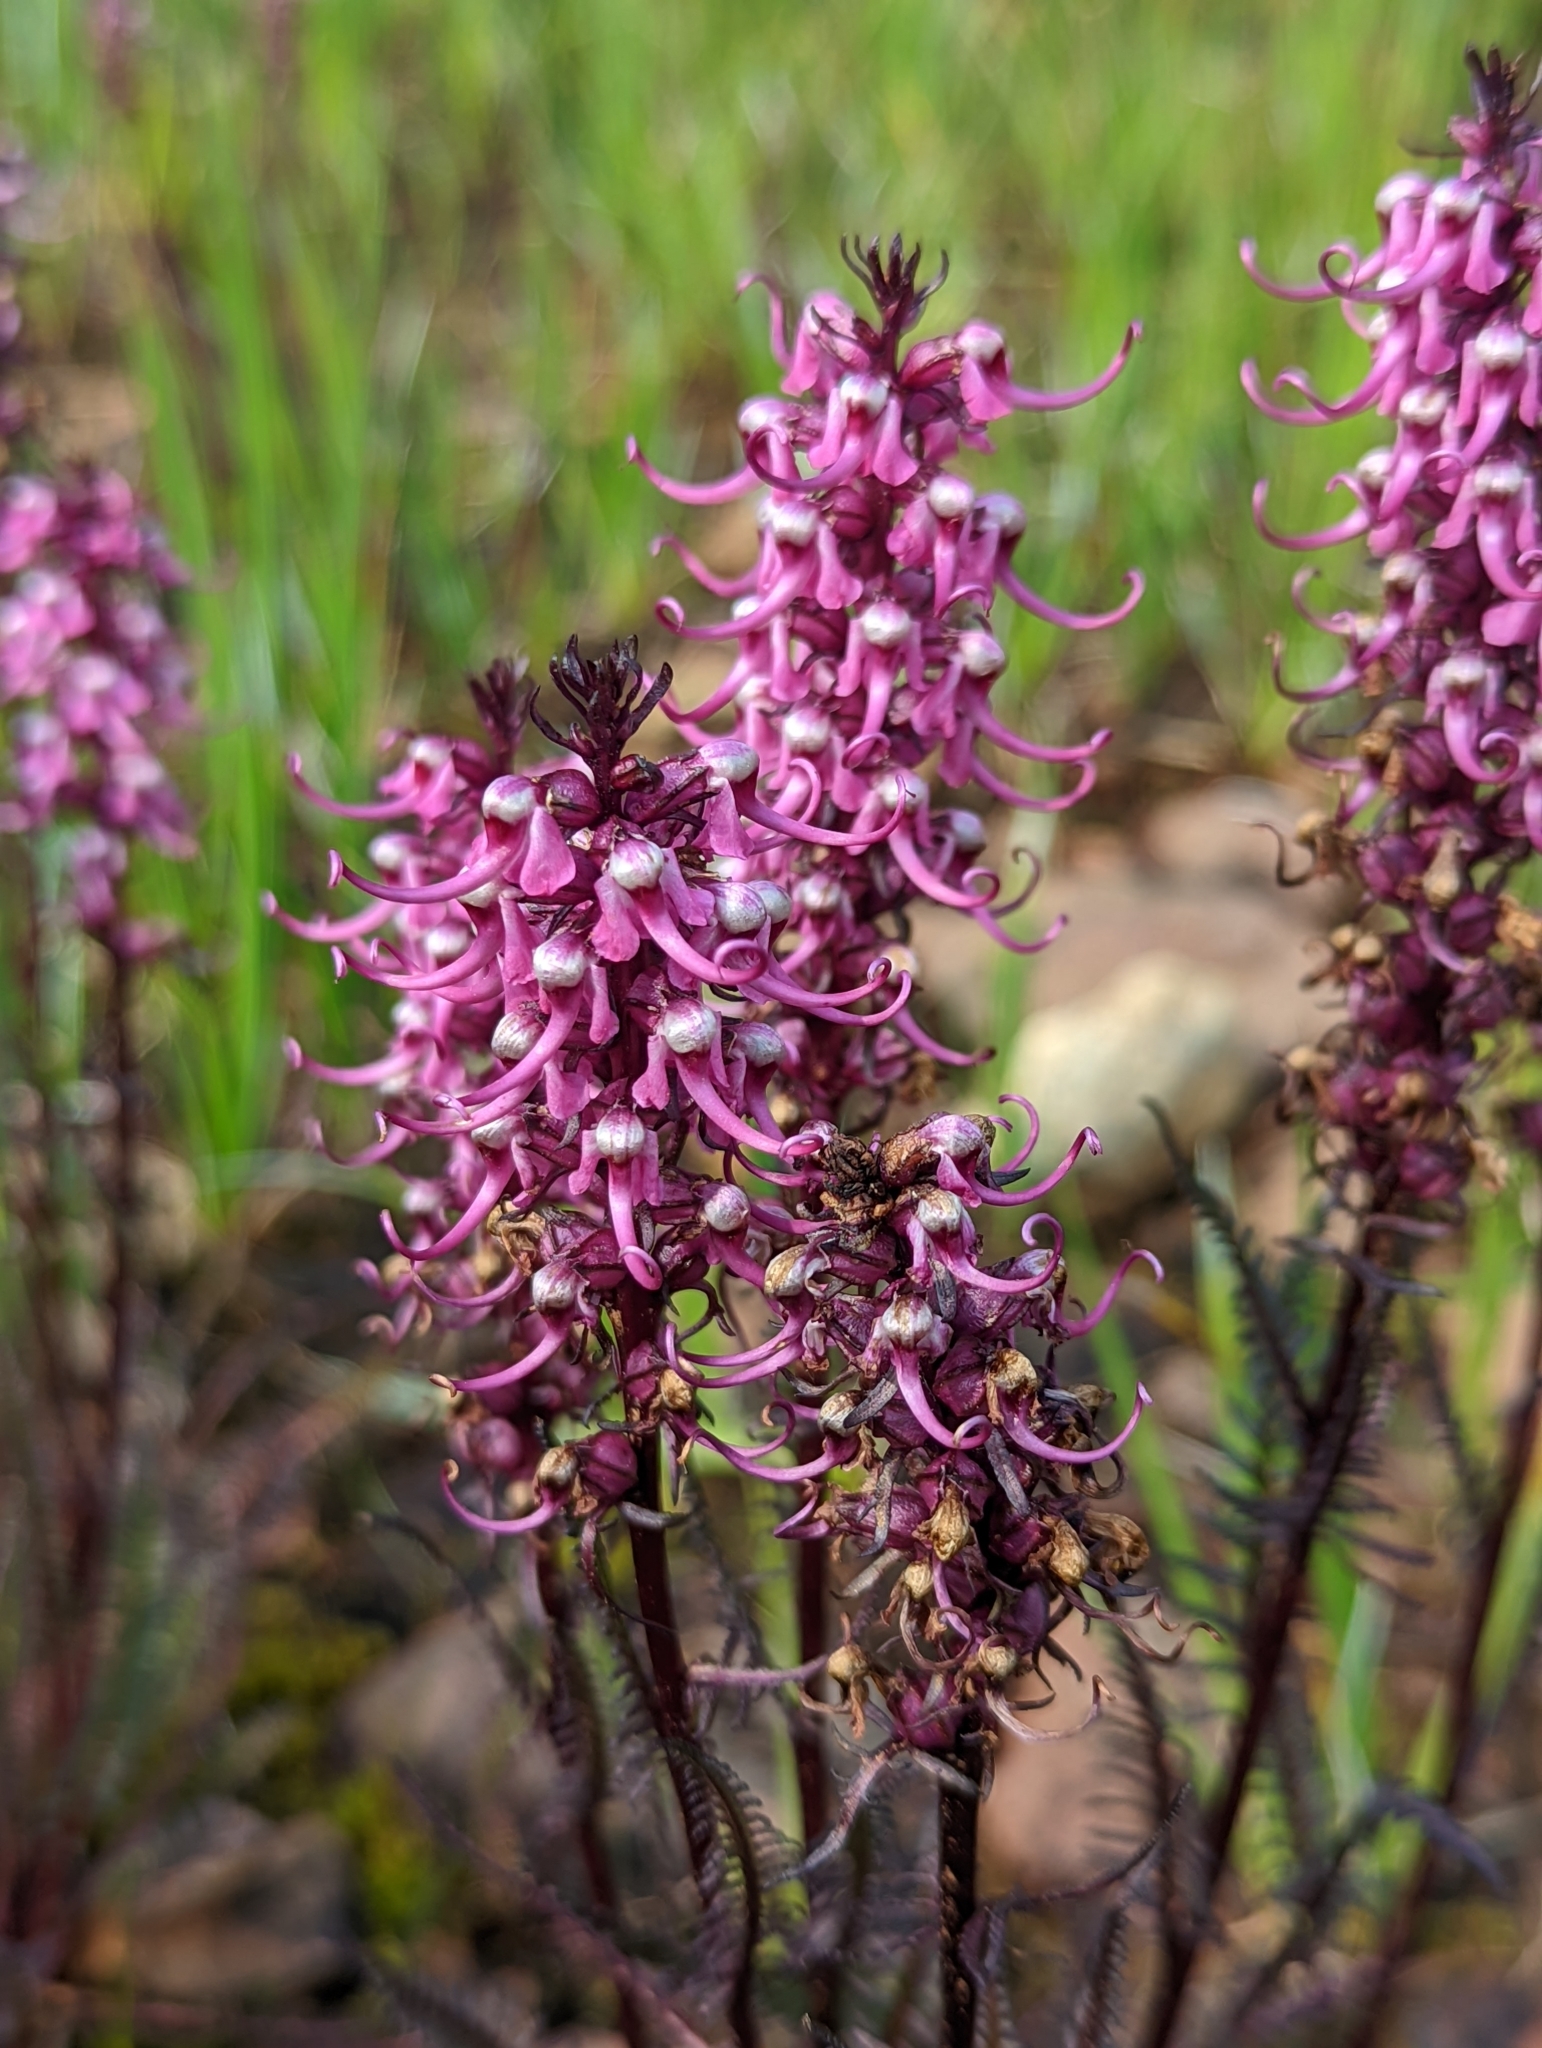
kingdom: Plantae
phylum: Tracheophyta
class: Magnoliopsida
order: Lamiales
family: Orobanchaceae
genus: Pedicularis
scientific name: Pedicularis groenlandica
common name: Elephant's-head
